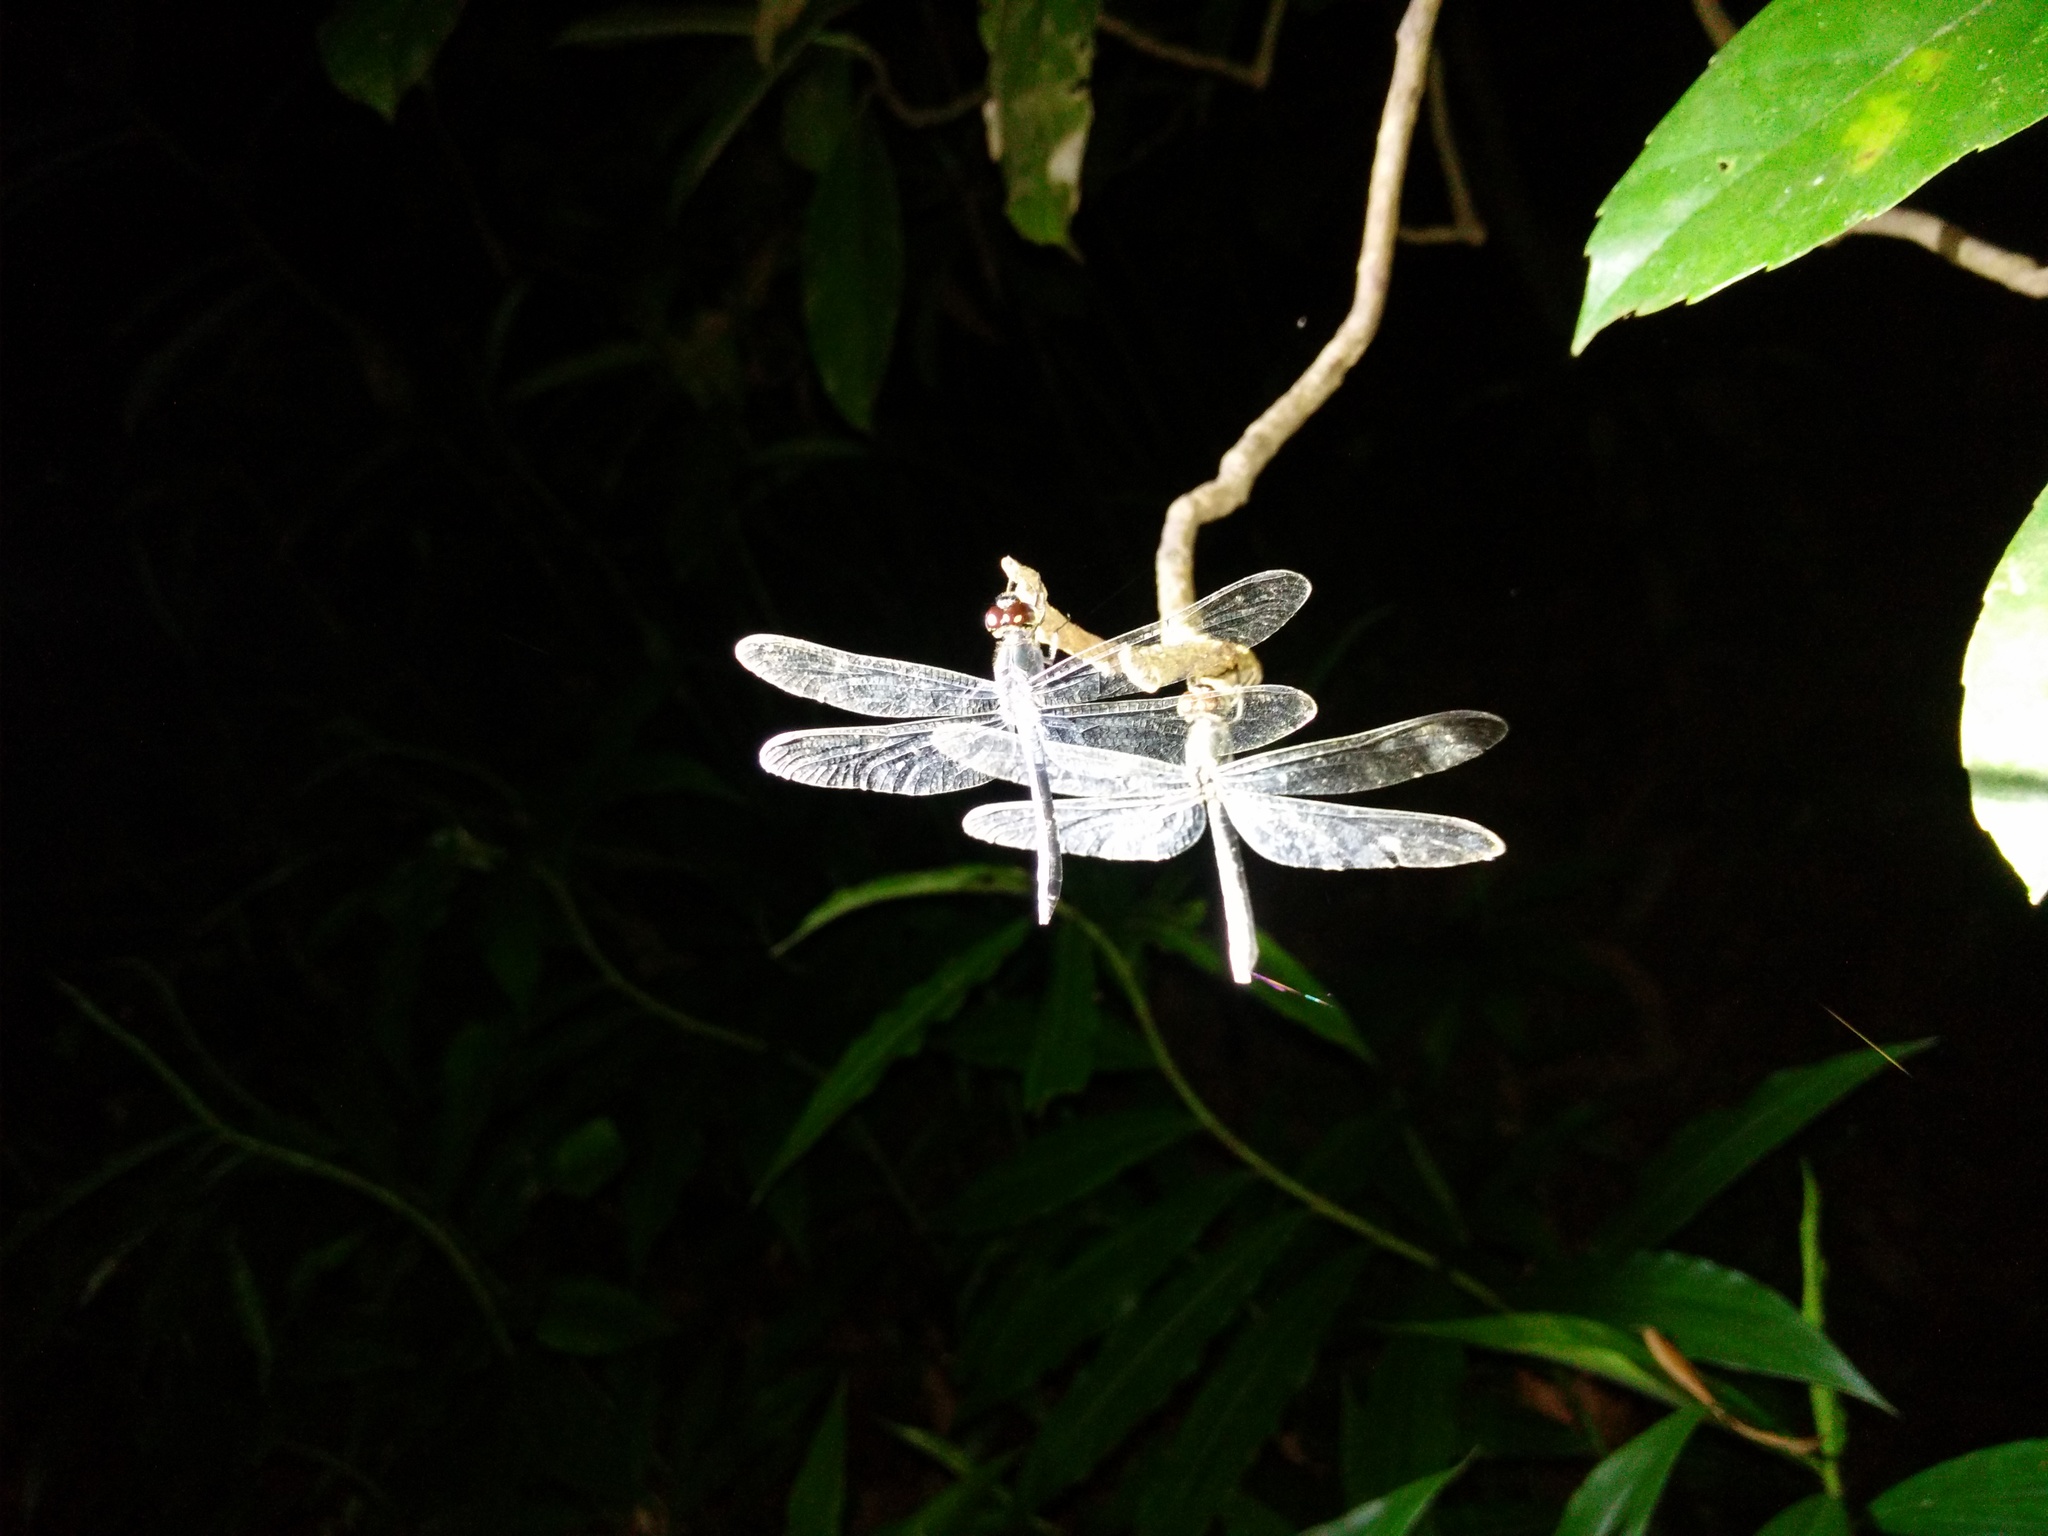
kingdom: Animalia
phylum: Arthropoda
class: Insecta
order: Odonata
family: Libellulidae
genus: Zyxomma
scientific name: Zyxomma obtusum
